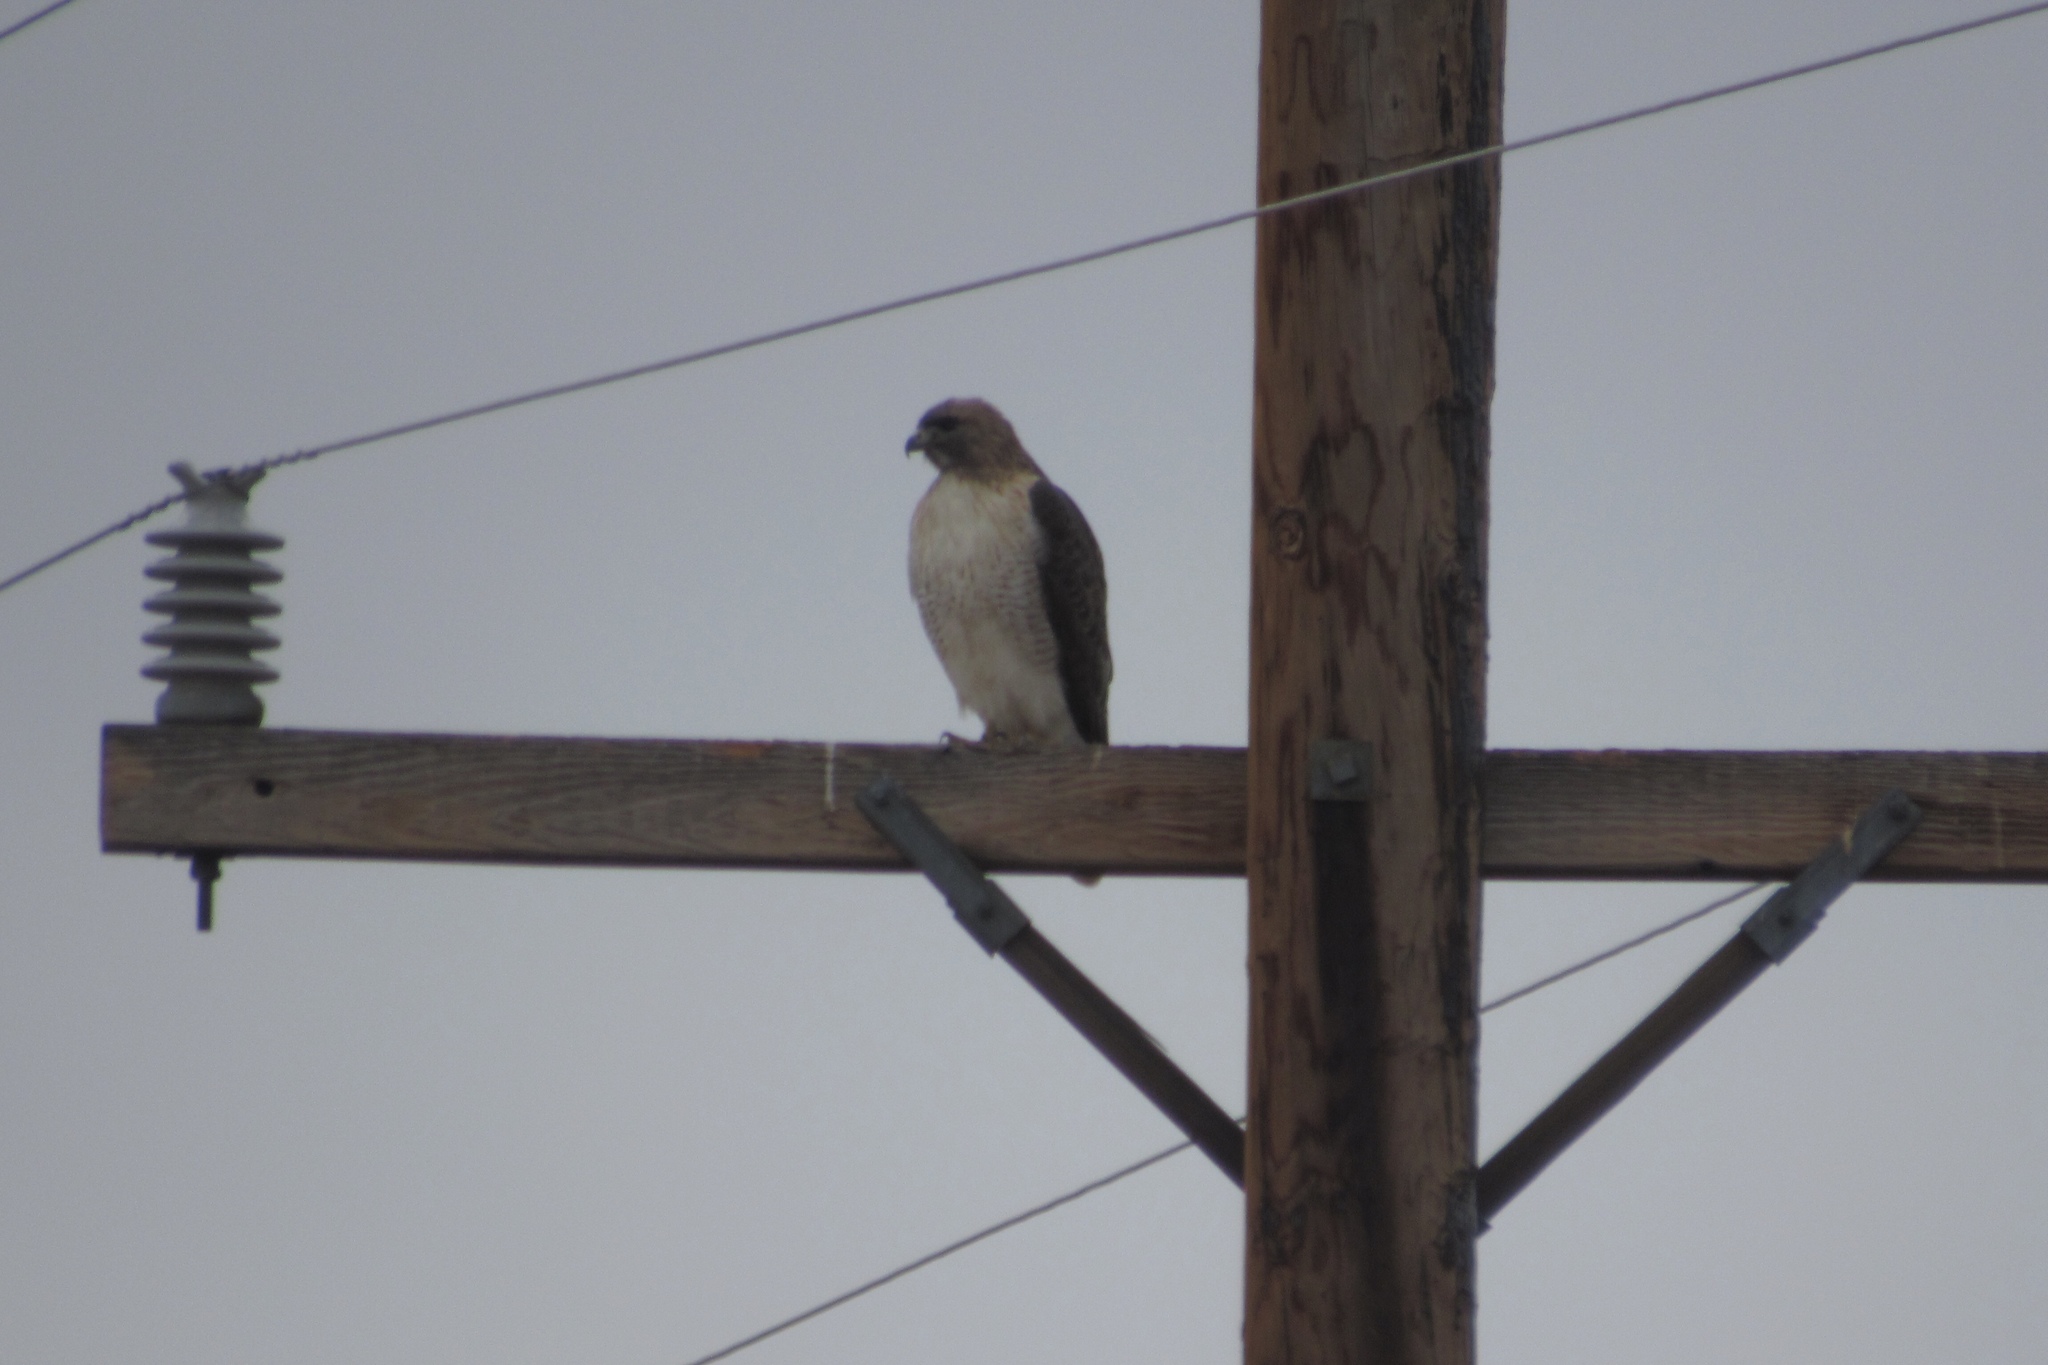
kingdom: Animalia
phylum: Chordata
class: Aves
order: Accipitriformes
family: Accipitridae
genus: Buteo
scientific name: Buteo jamaicensis
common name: Red-tailed hawk
